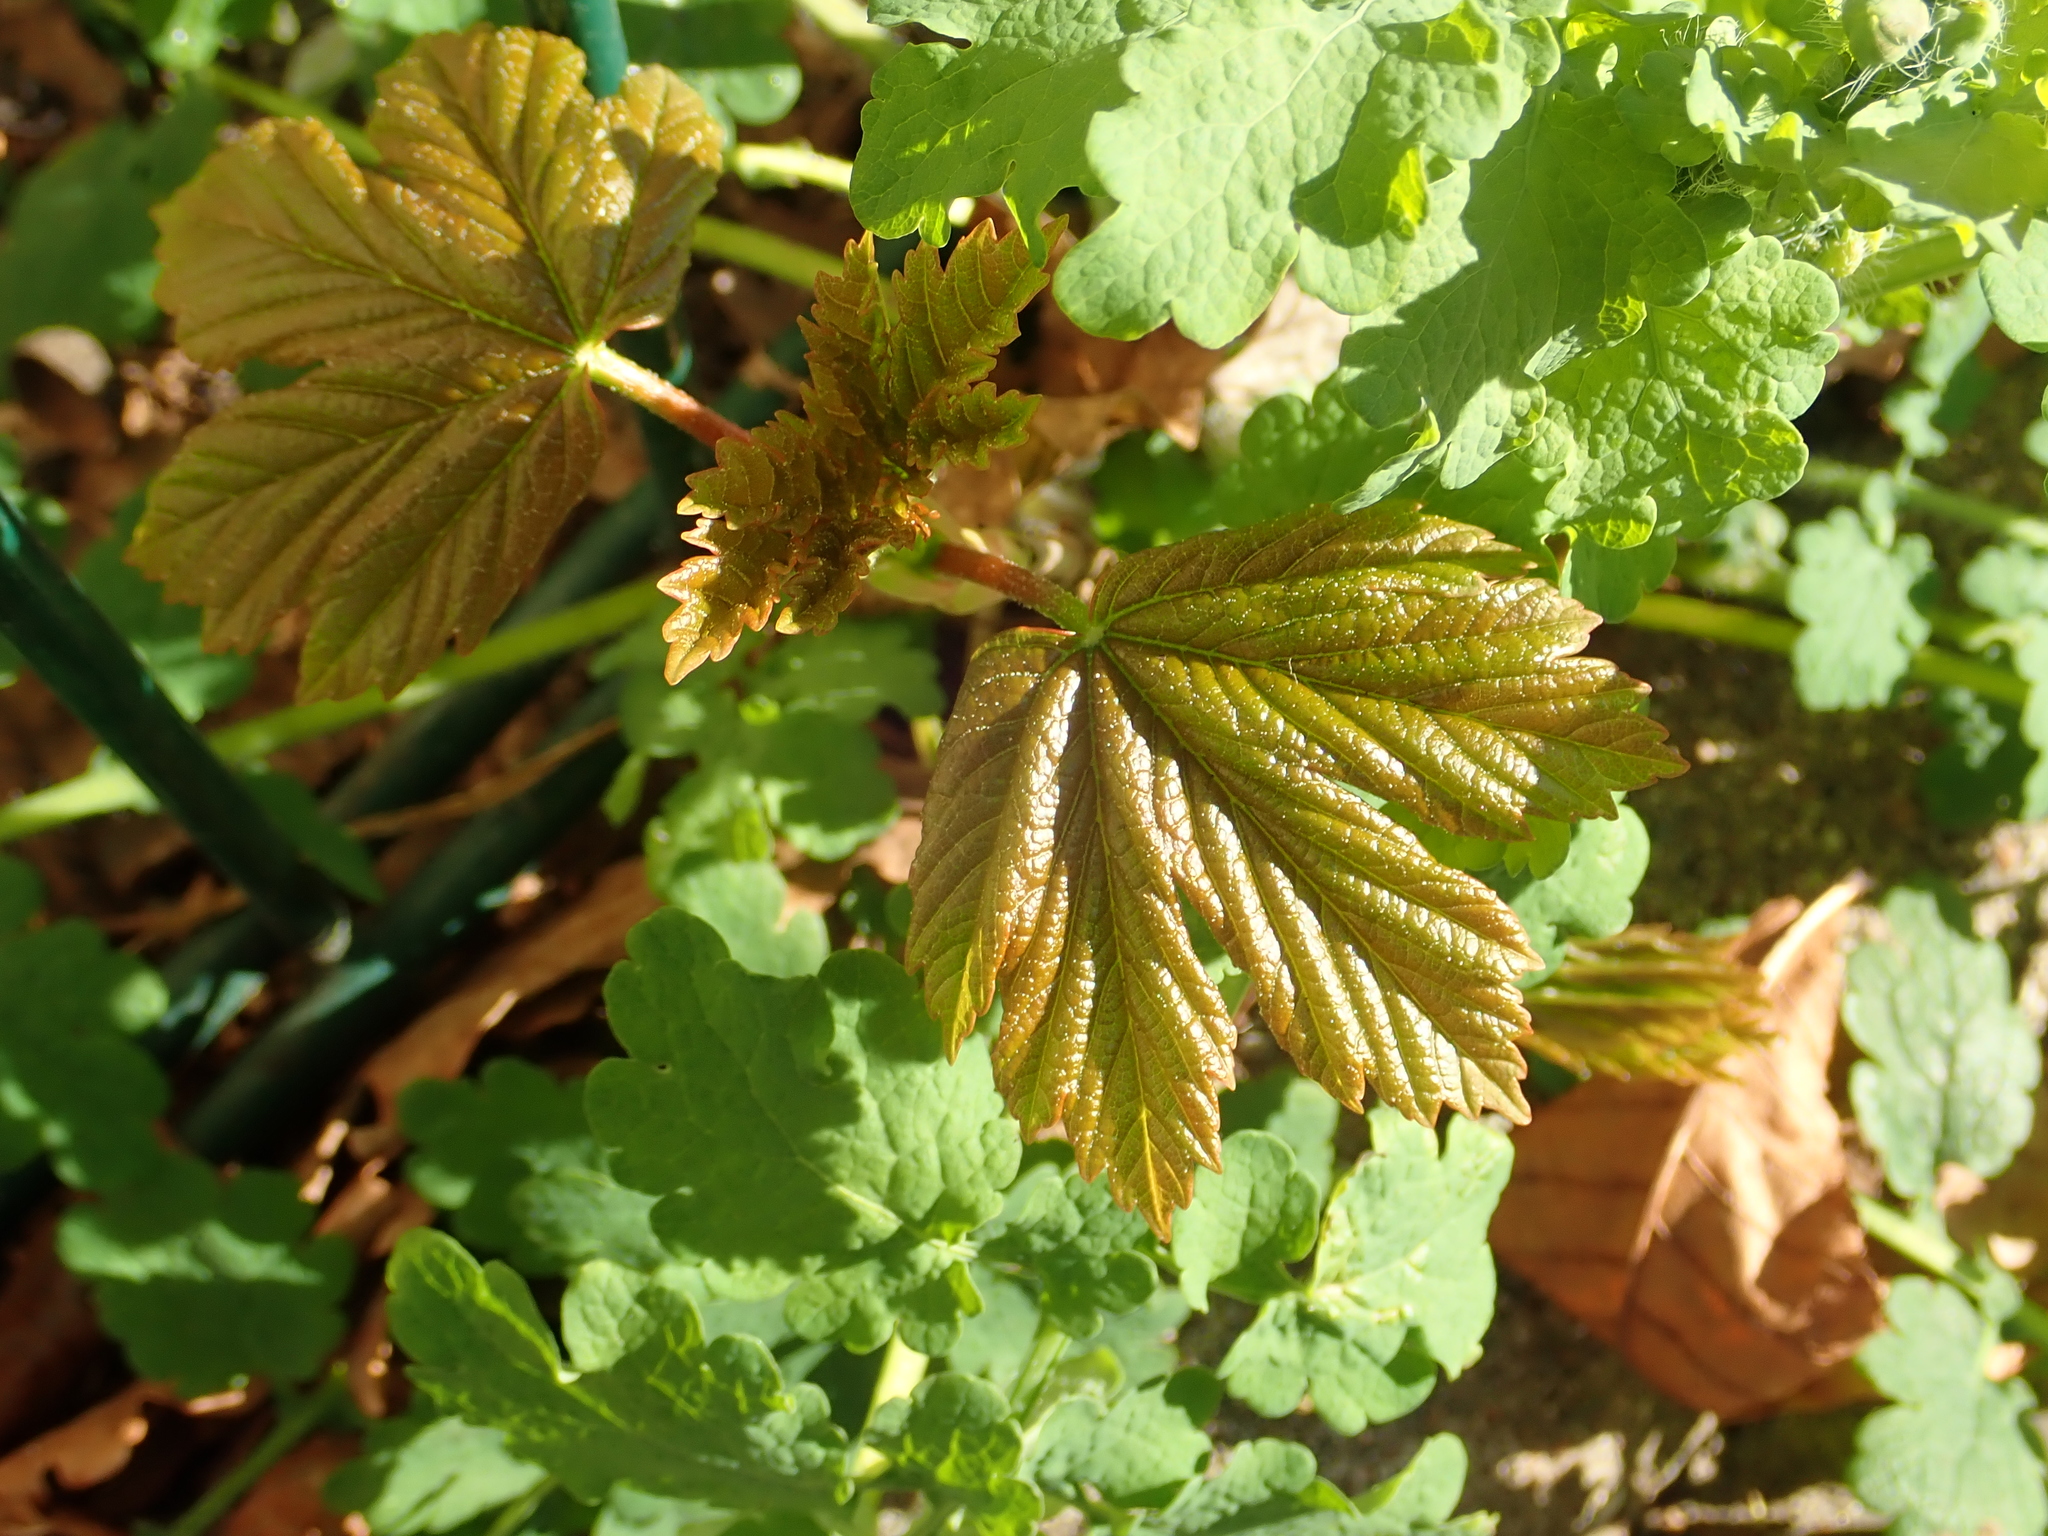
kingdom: Plantae
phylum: Tracheophyta
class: Magnoliopsida
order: Sapindales
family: Sapindaceae
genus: Acer
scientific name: Acer pseudoplatanus
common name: Sycamore
